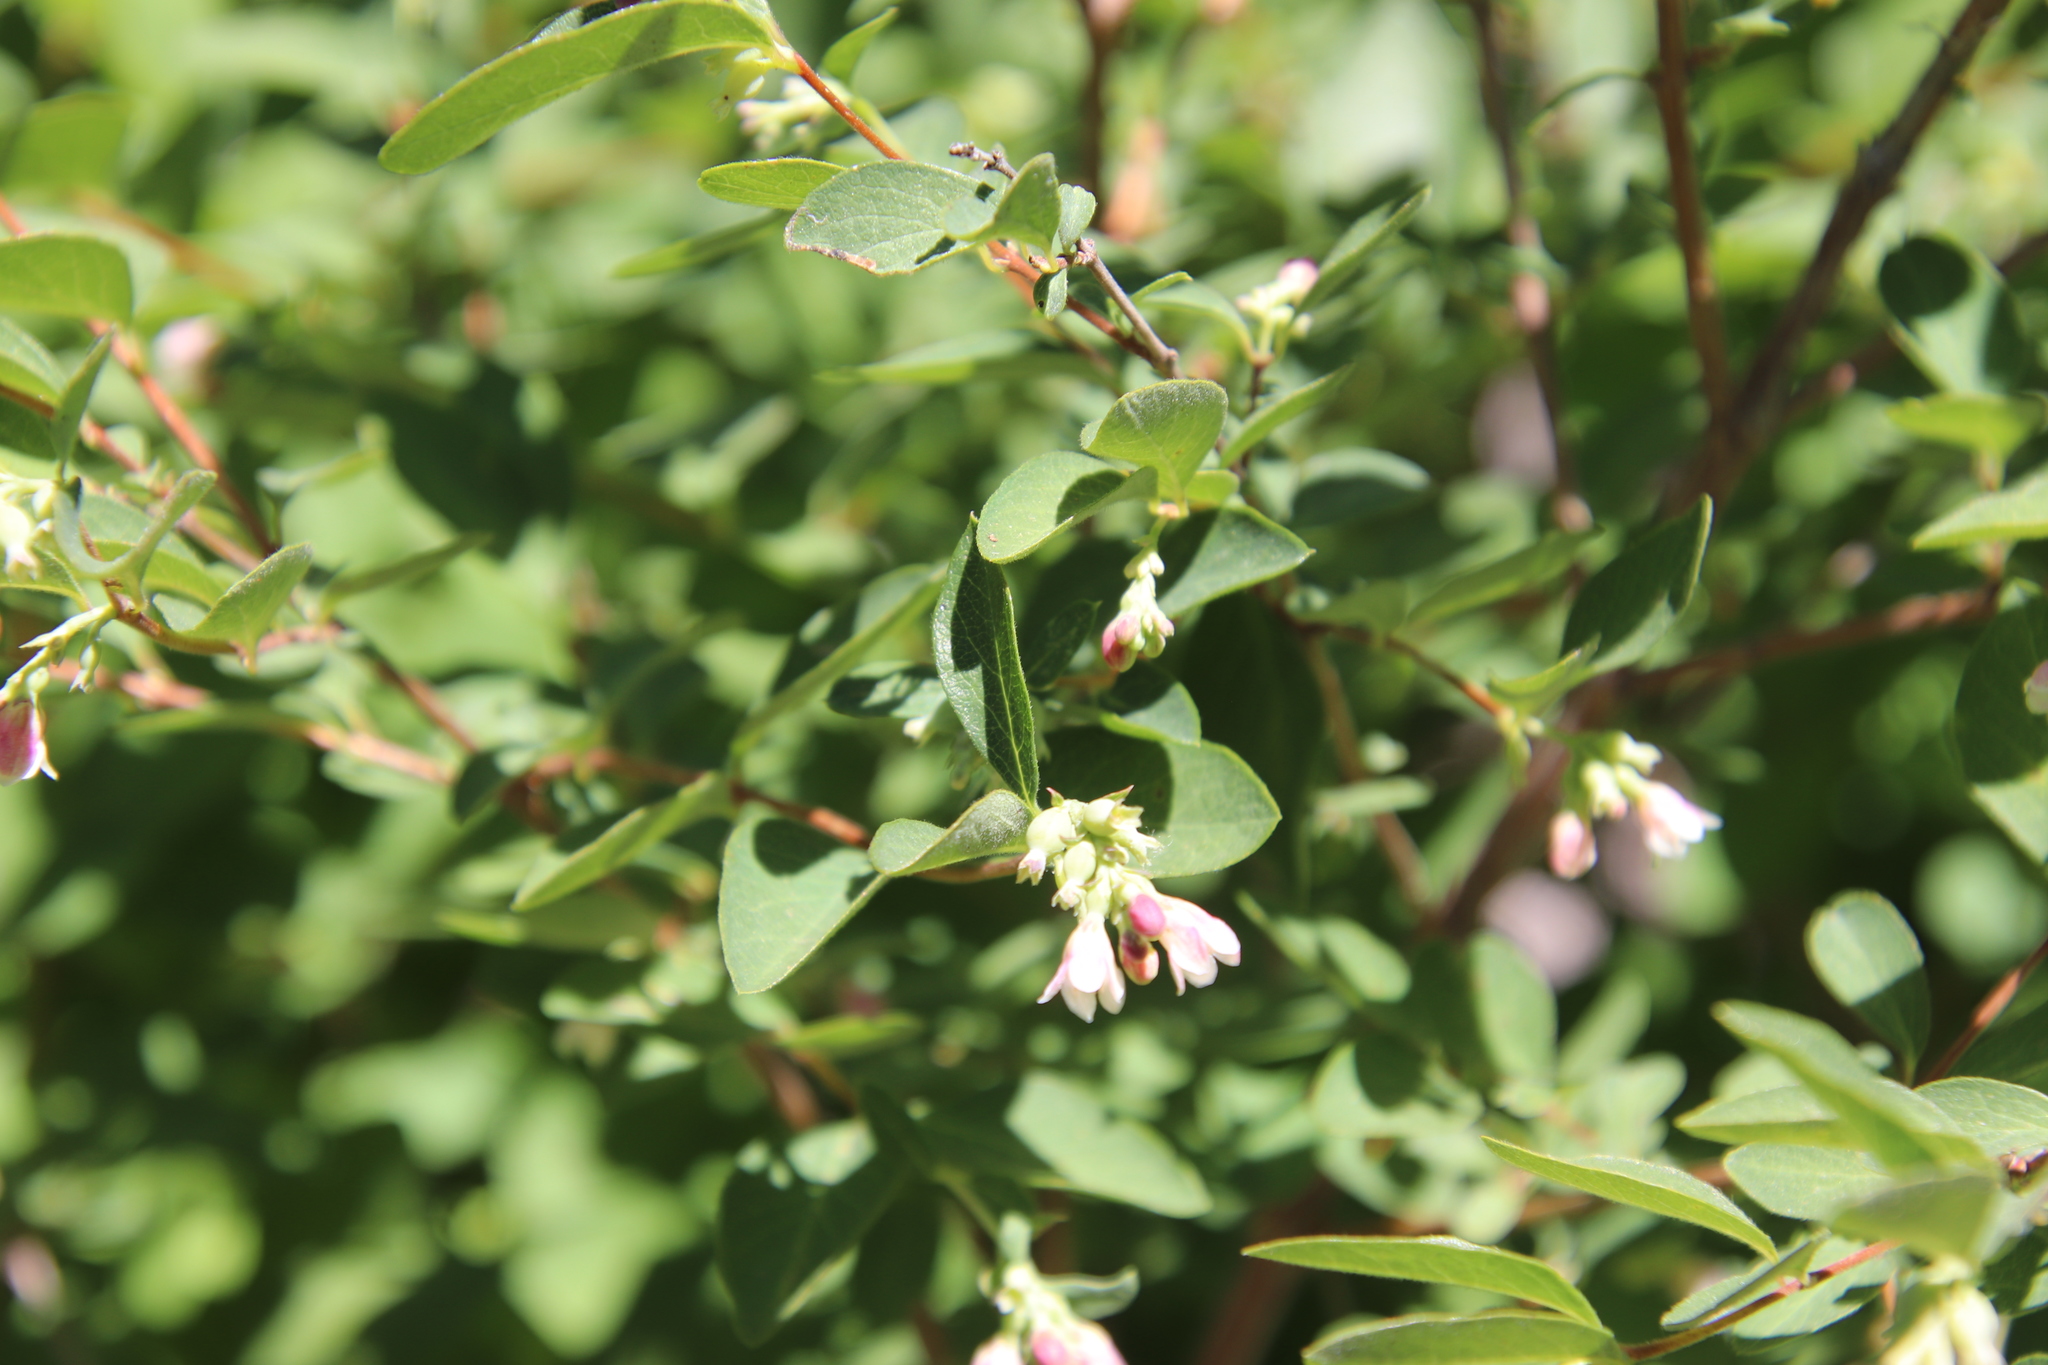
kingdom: Plantae
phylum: Tracheophyta
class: Magnoliopsida
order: Dipsacales
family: Caprifoliaceae
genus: Symphoricarpos
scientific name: Symphoricarpos albus
